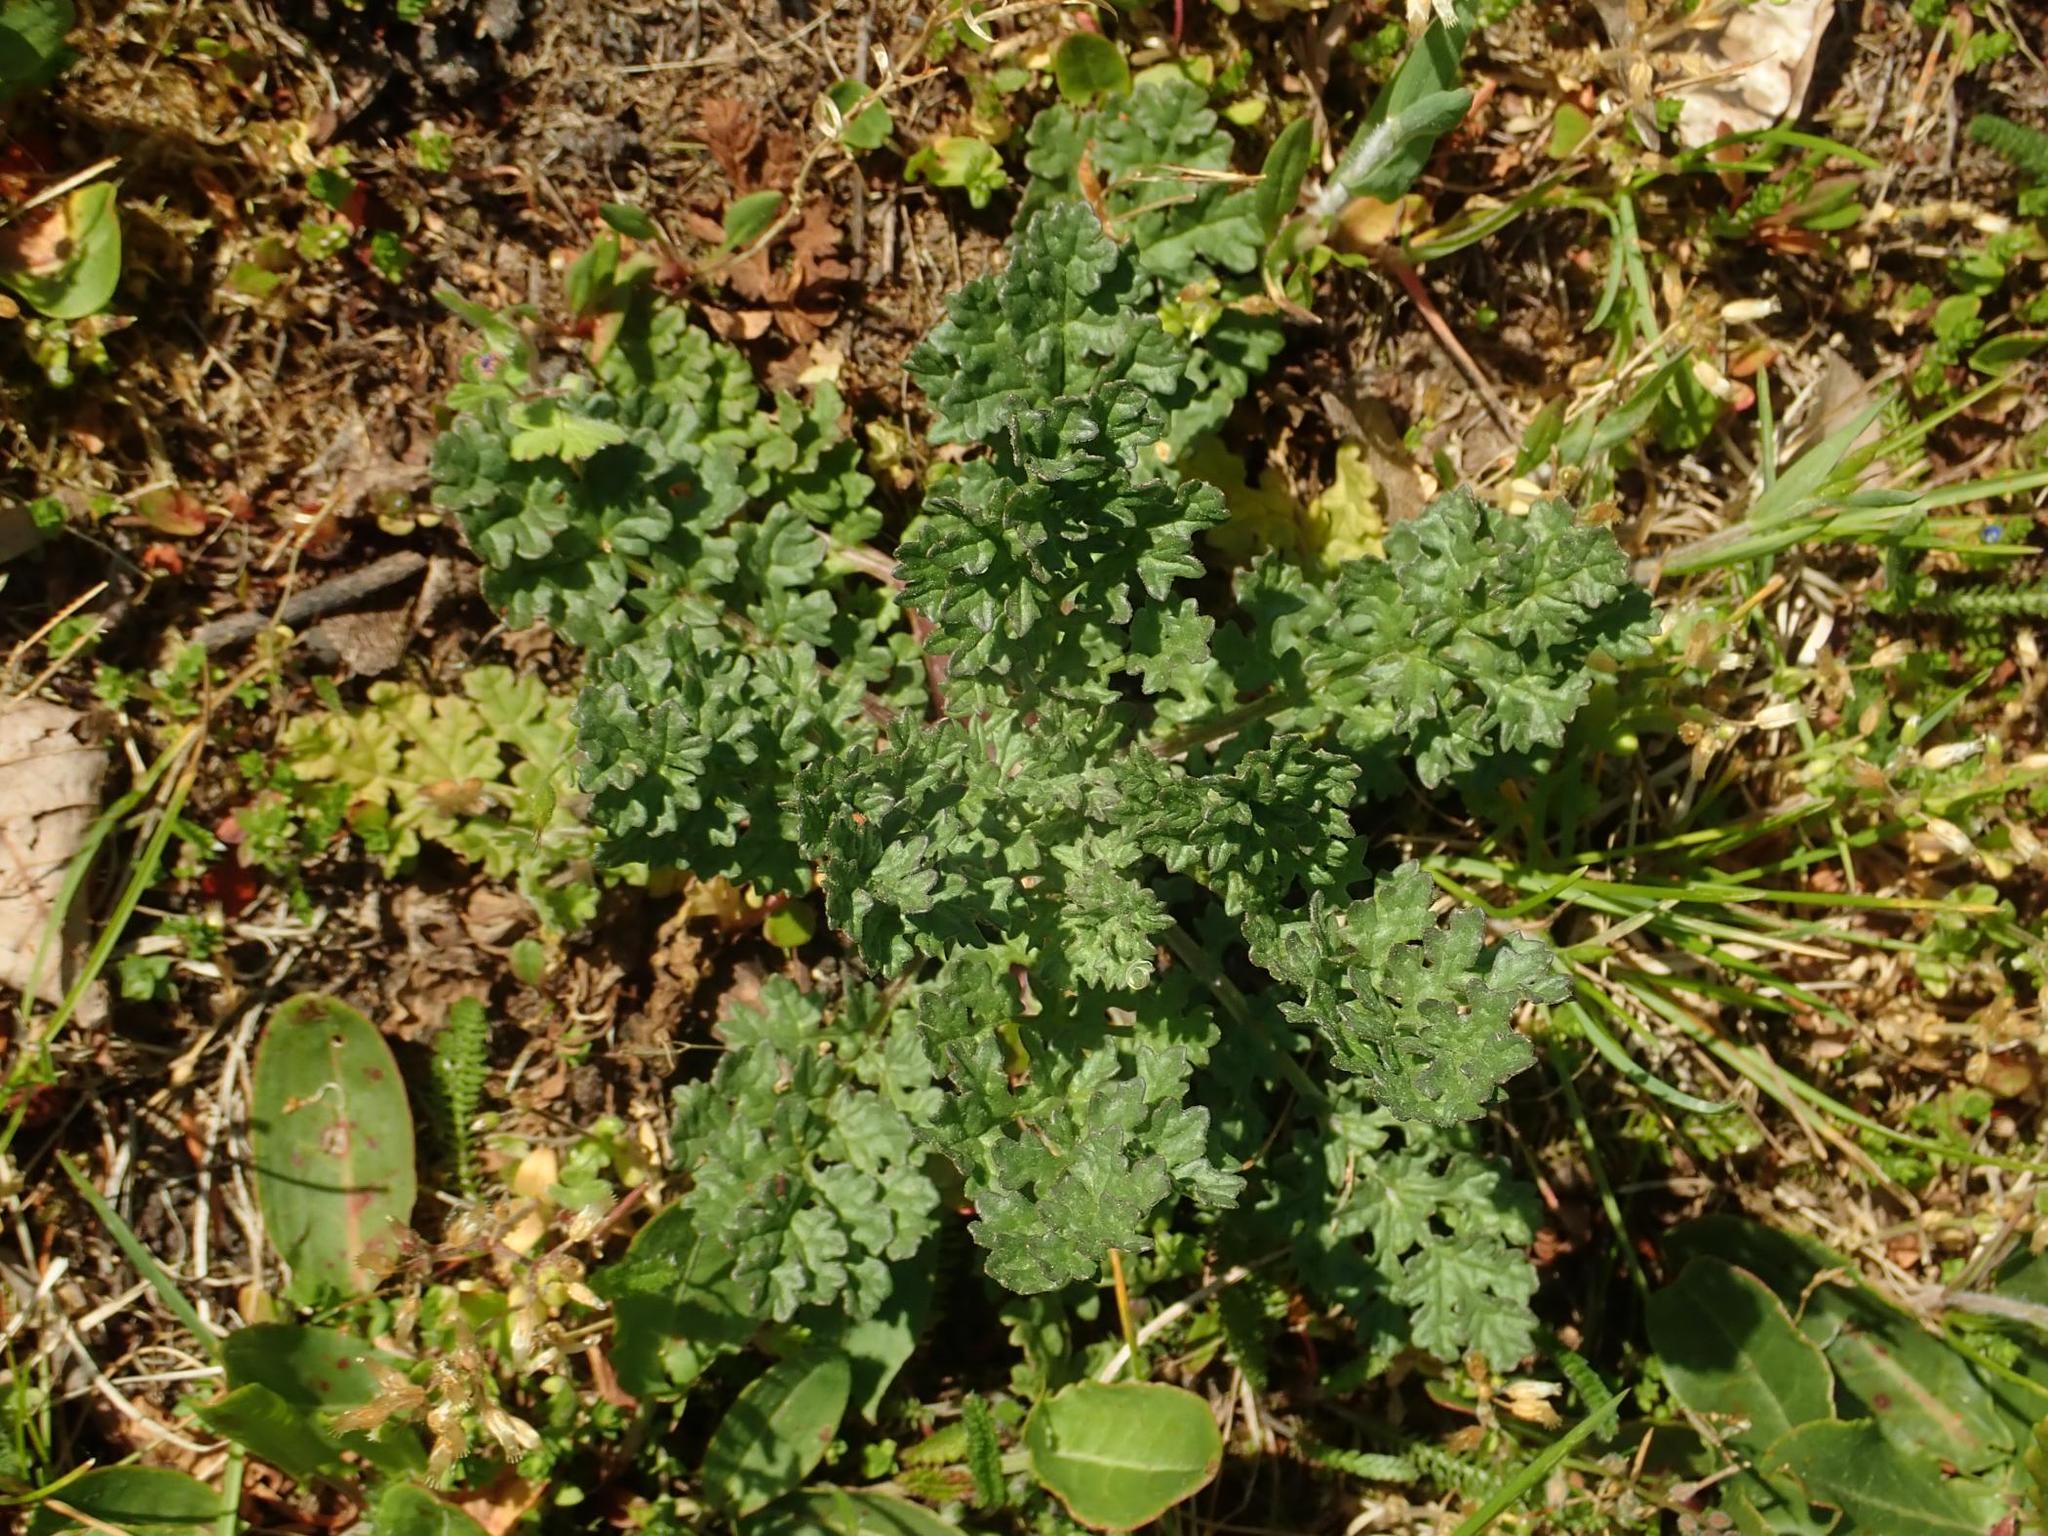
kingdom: Plantae
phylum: Tracheophyta
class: Magnoliopsida
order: Asterales
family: Asteraceae
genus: Jacobaea
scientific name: Jacobaea vulgaris
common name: Stinking willie
